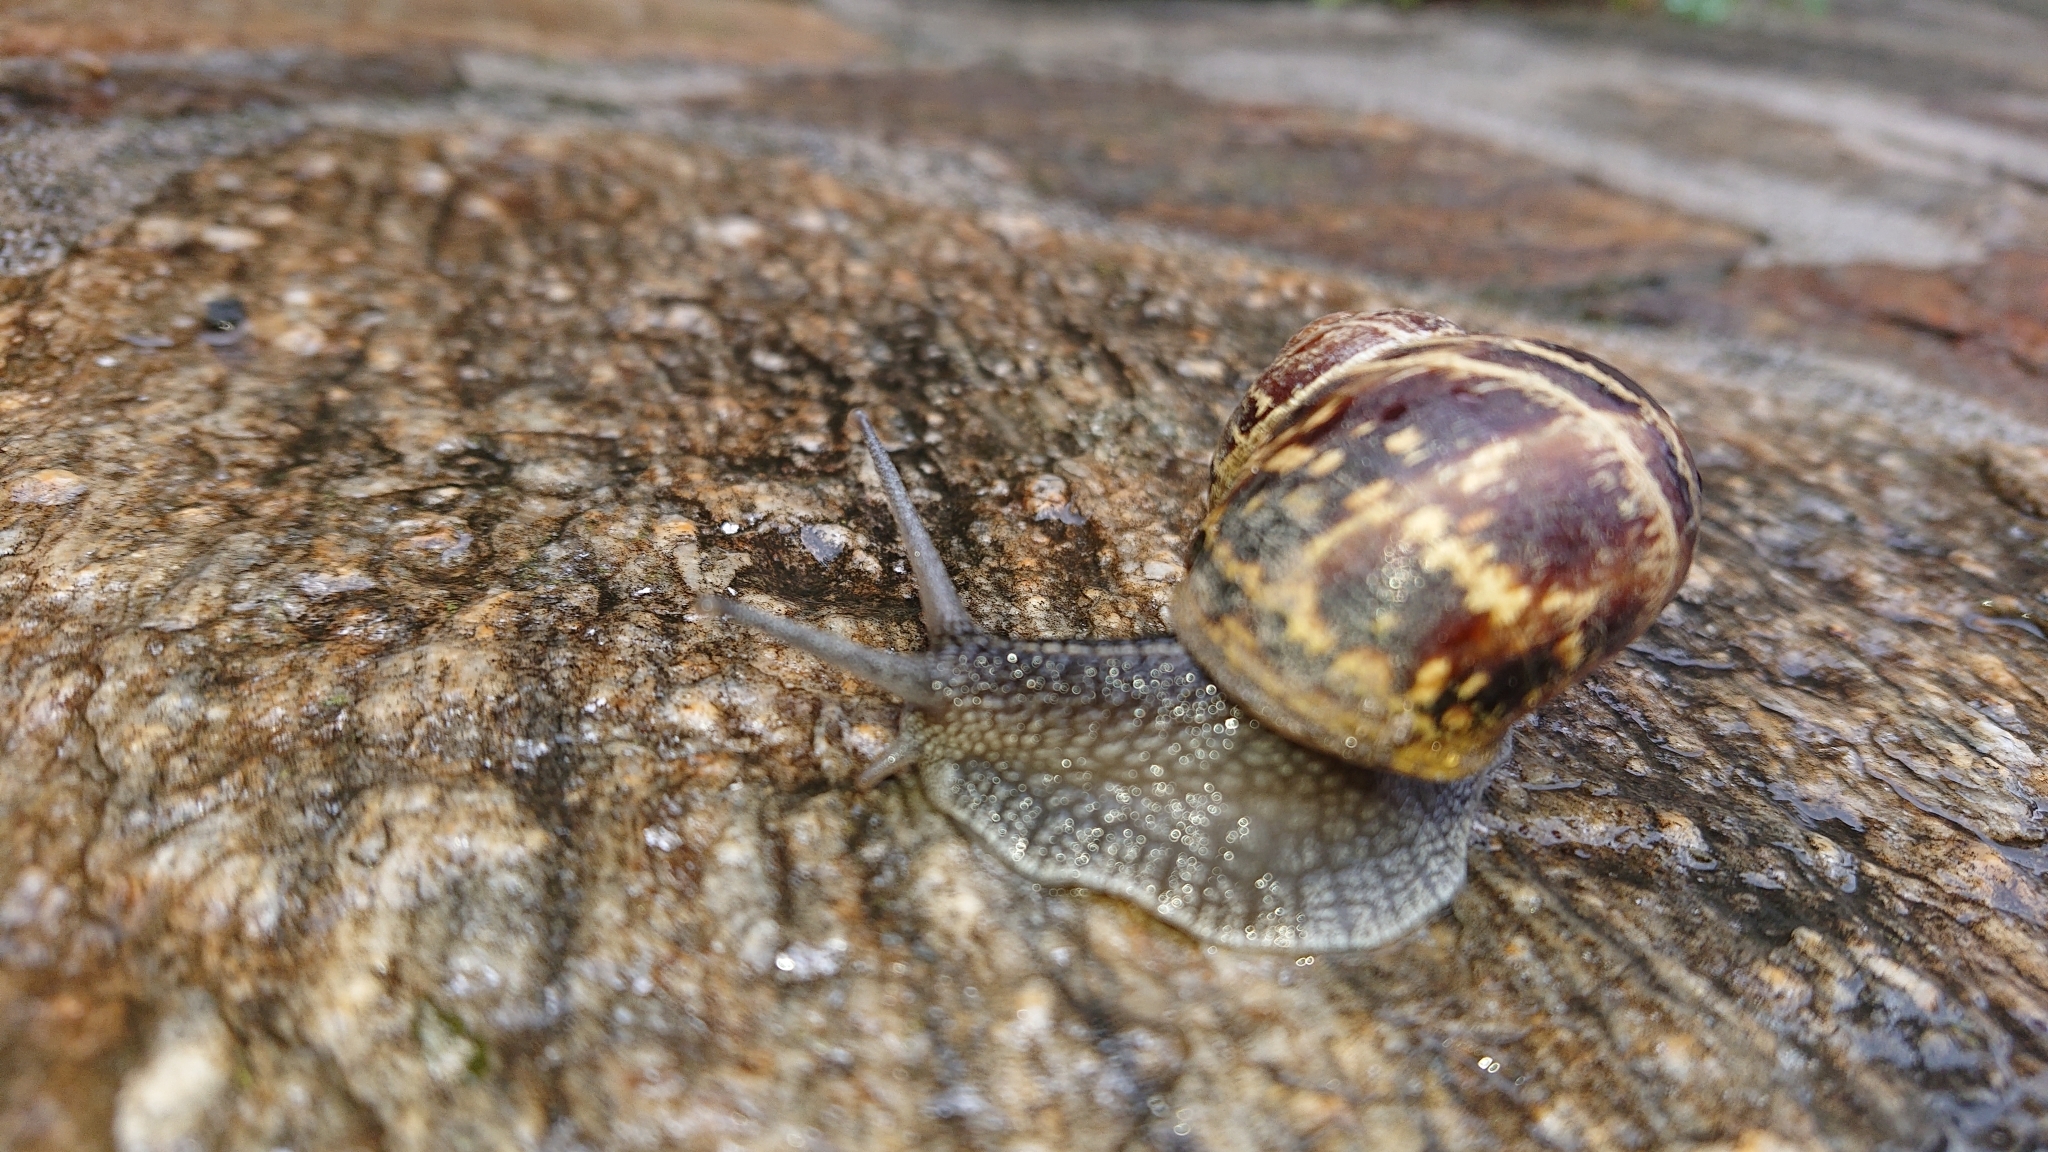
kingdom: Animalia
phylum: Mollusca
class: Gastropoda
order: Stylommatophora
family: Helicidae
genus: Cornu
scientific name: Cornu aspersum
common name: Brown garden snail
